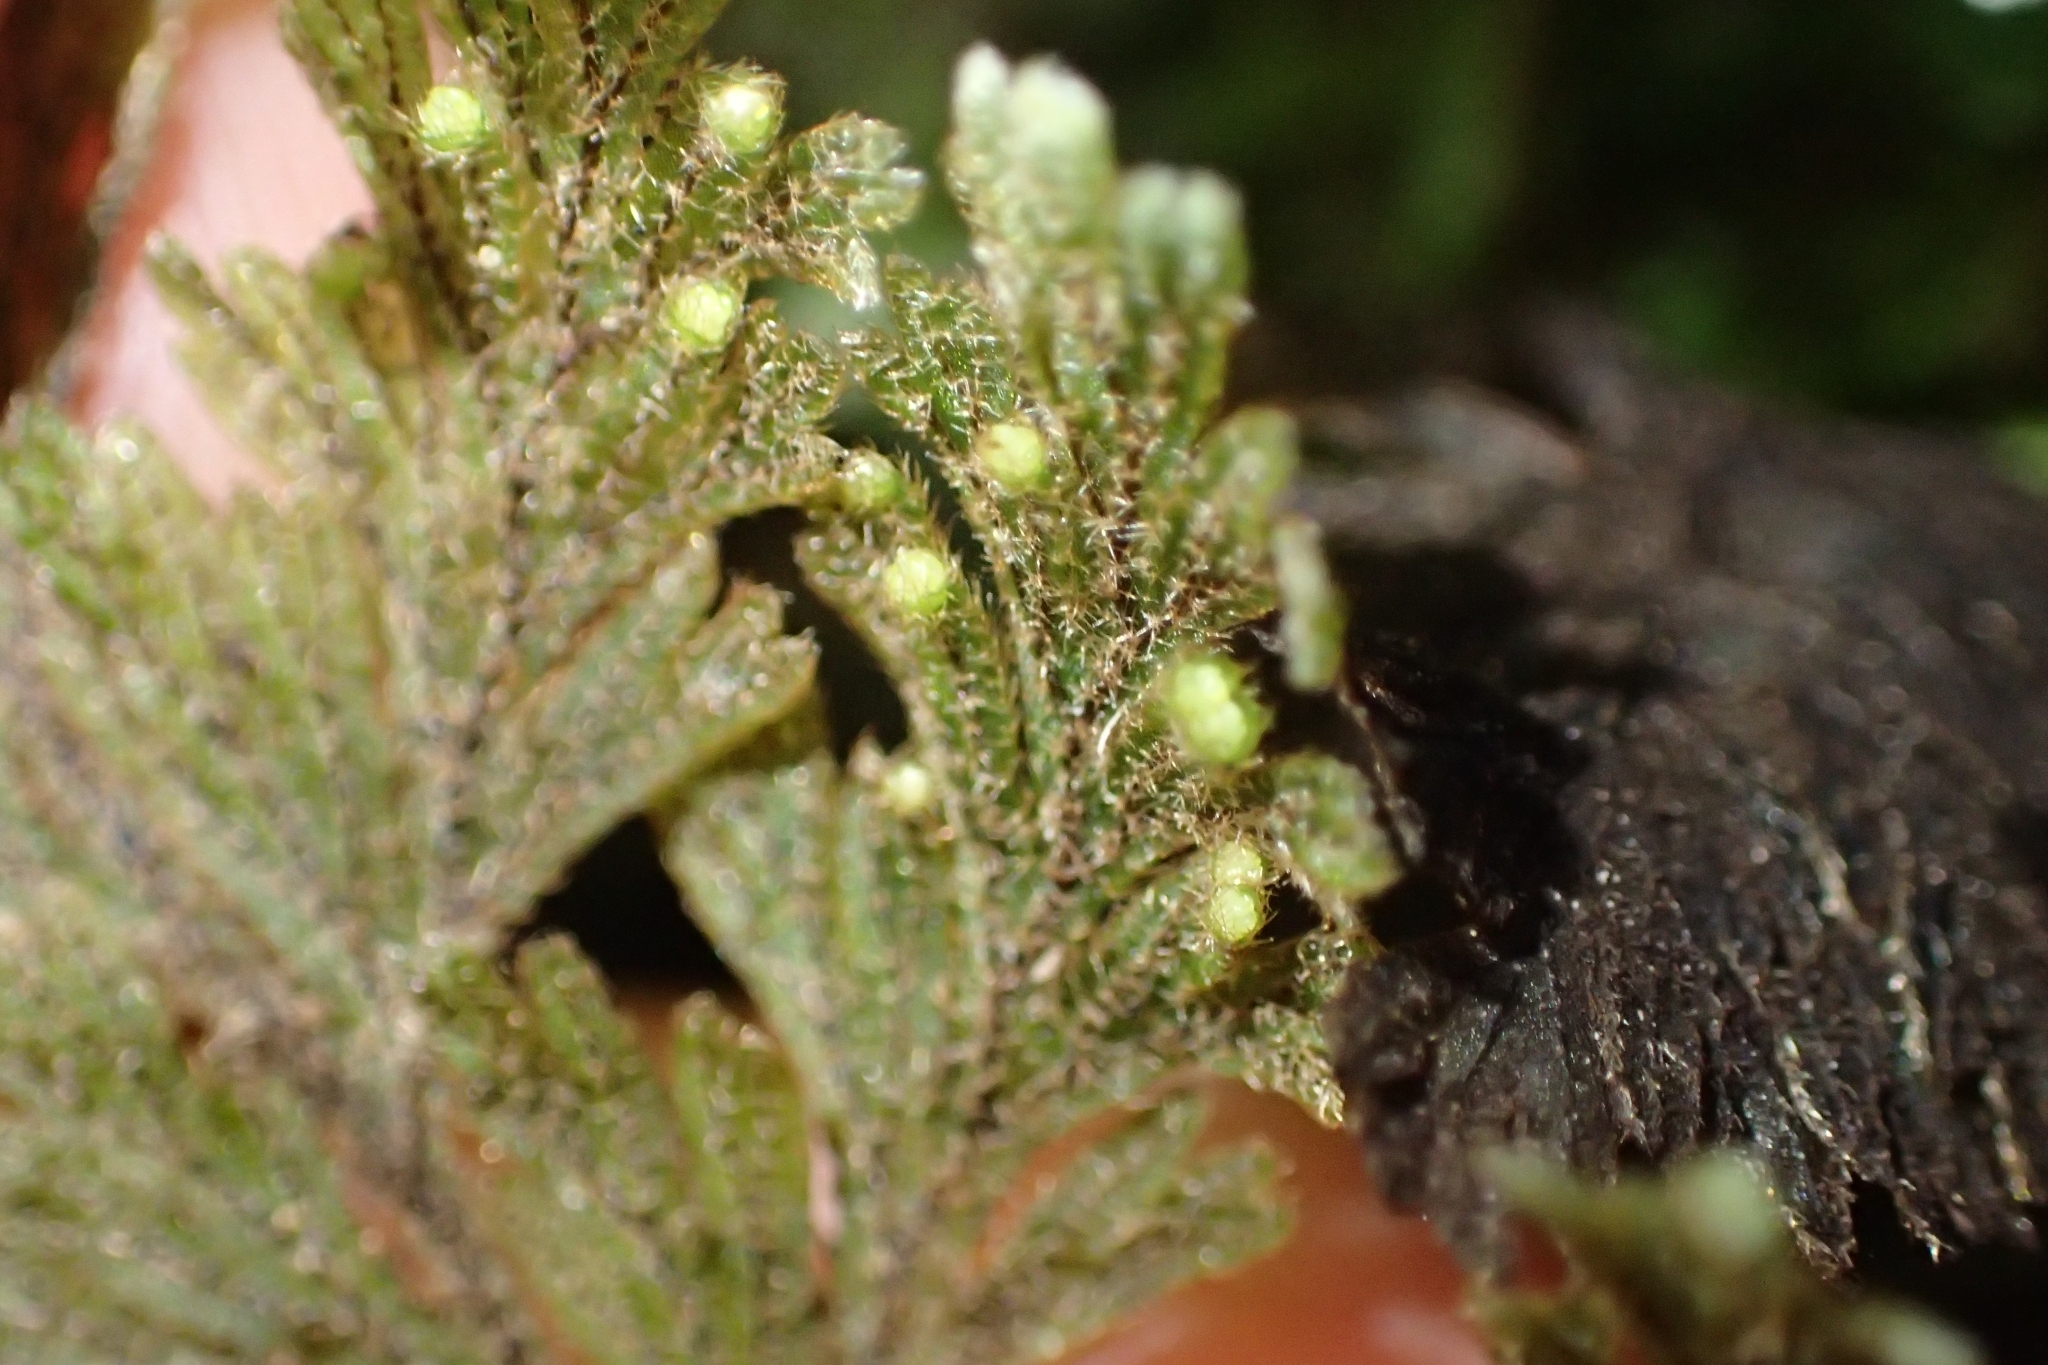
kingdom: Plantae
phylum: Tracheophyta
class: Polypodiopsida
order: Hymenophyllales
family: Hymenophyllaceae
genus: Hymenophyllum
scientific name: Hymenophyllum frankliniae
